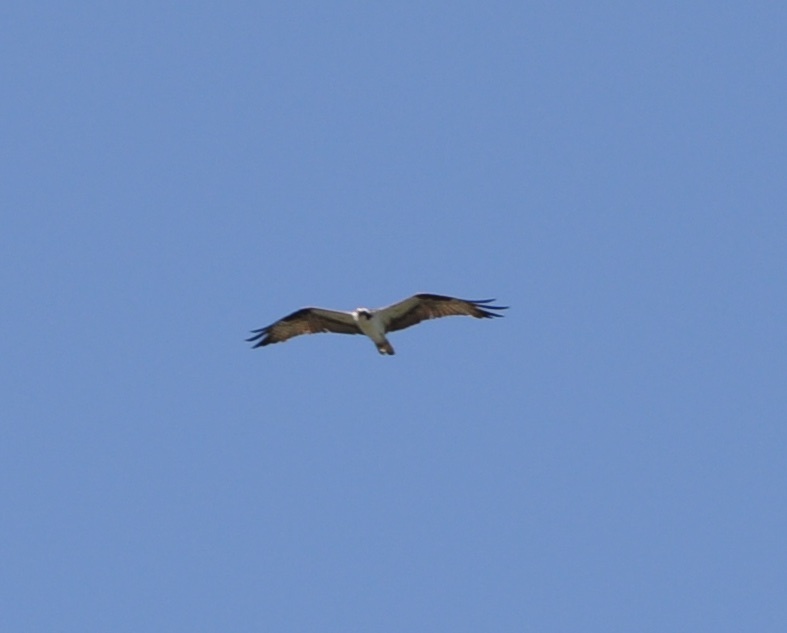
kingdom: Animalia
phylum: Chordata
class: Aves
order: Accipitriformes
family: Pandionidae
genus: Pandion
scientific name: Pandion haliaetus
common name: Osprey
